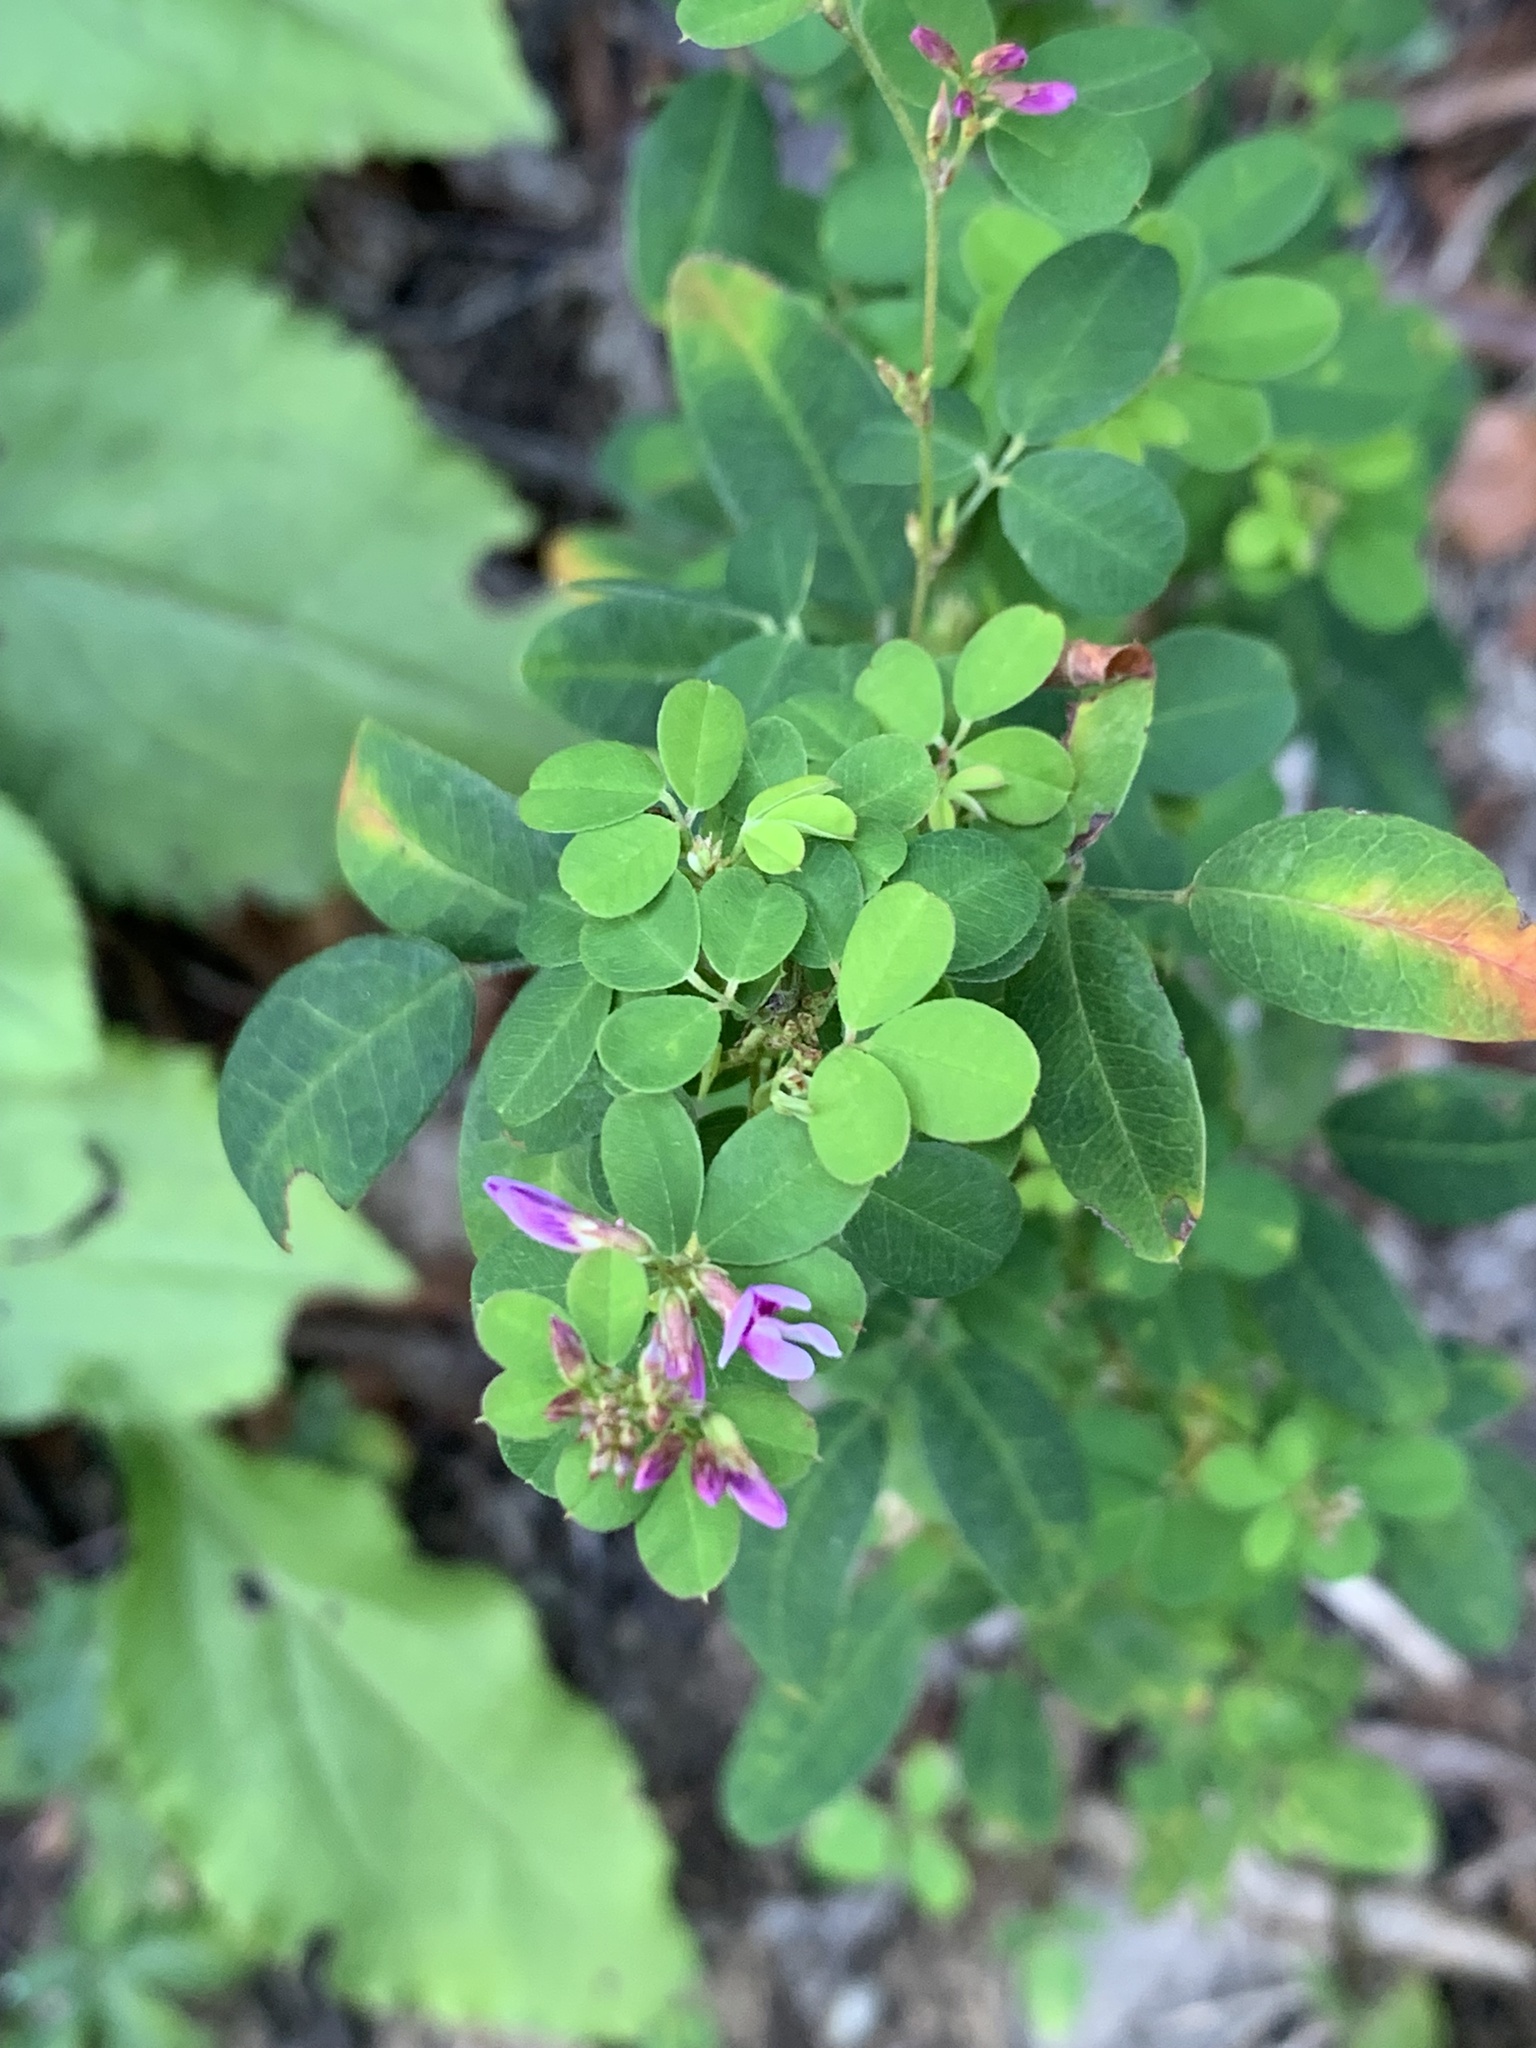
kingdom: Plantae
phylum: Tracheophyta
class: Magnoliopsida
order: Fabales
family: Fabaceae
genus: Lespedeza
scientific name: Lespedeza violacea
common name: Wand bush-clover
